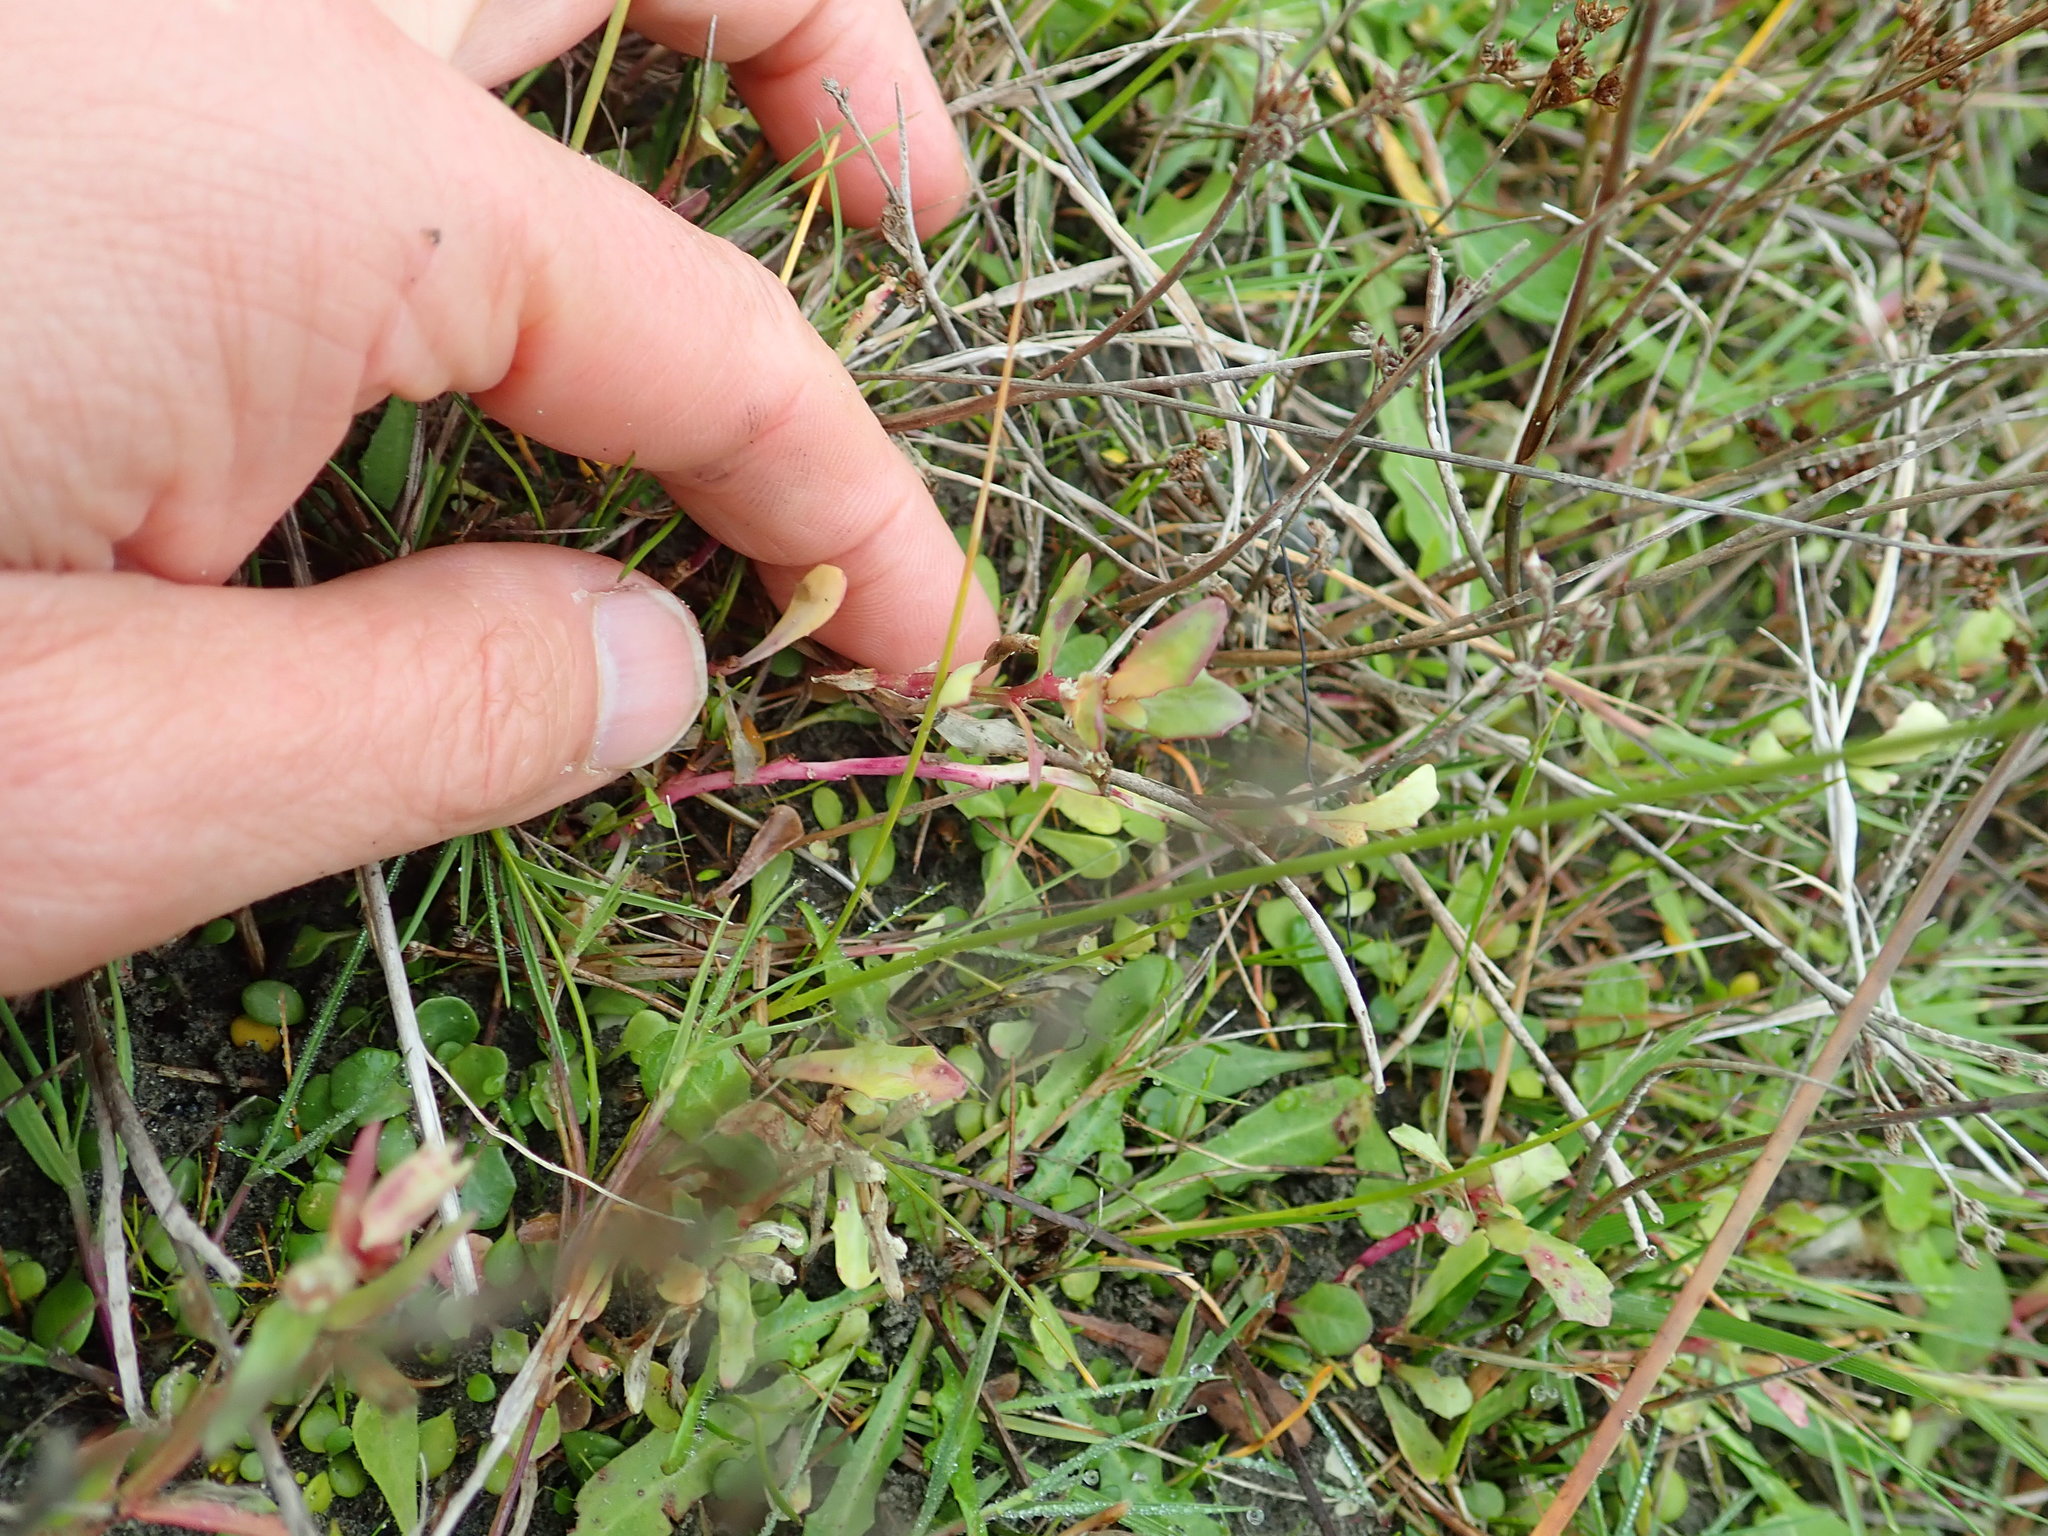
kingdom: Plantae
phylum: Tracheophyta
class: Magnoliopsida
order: Asterales
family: Campanulaceae
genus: Lobelia
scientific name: Lobelia anceps
